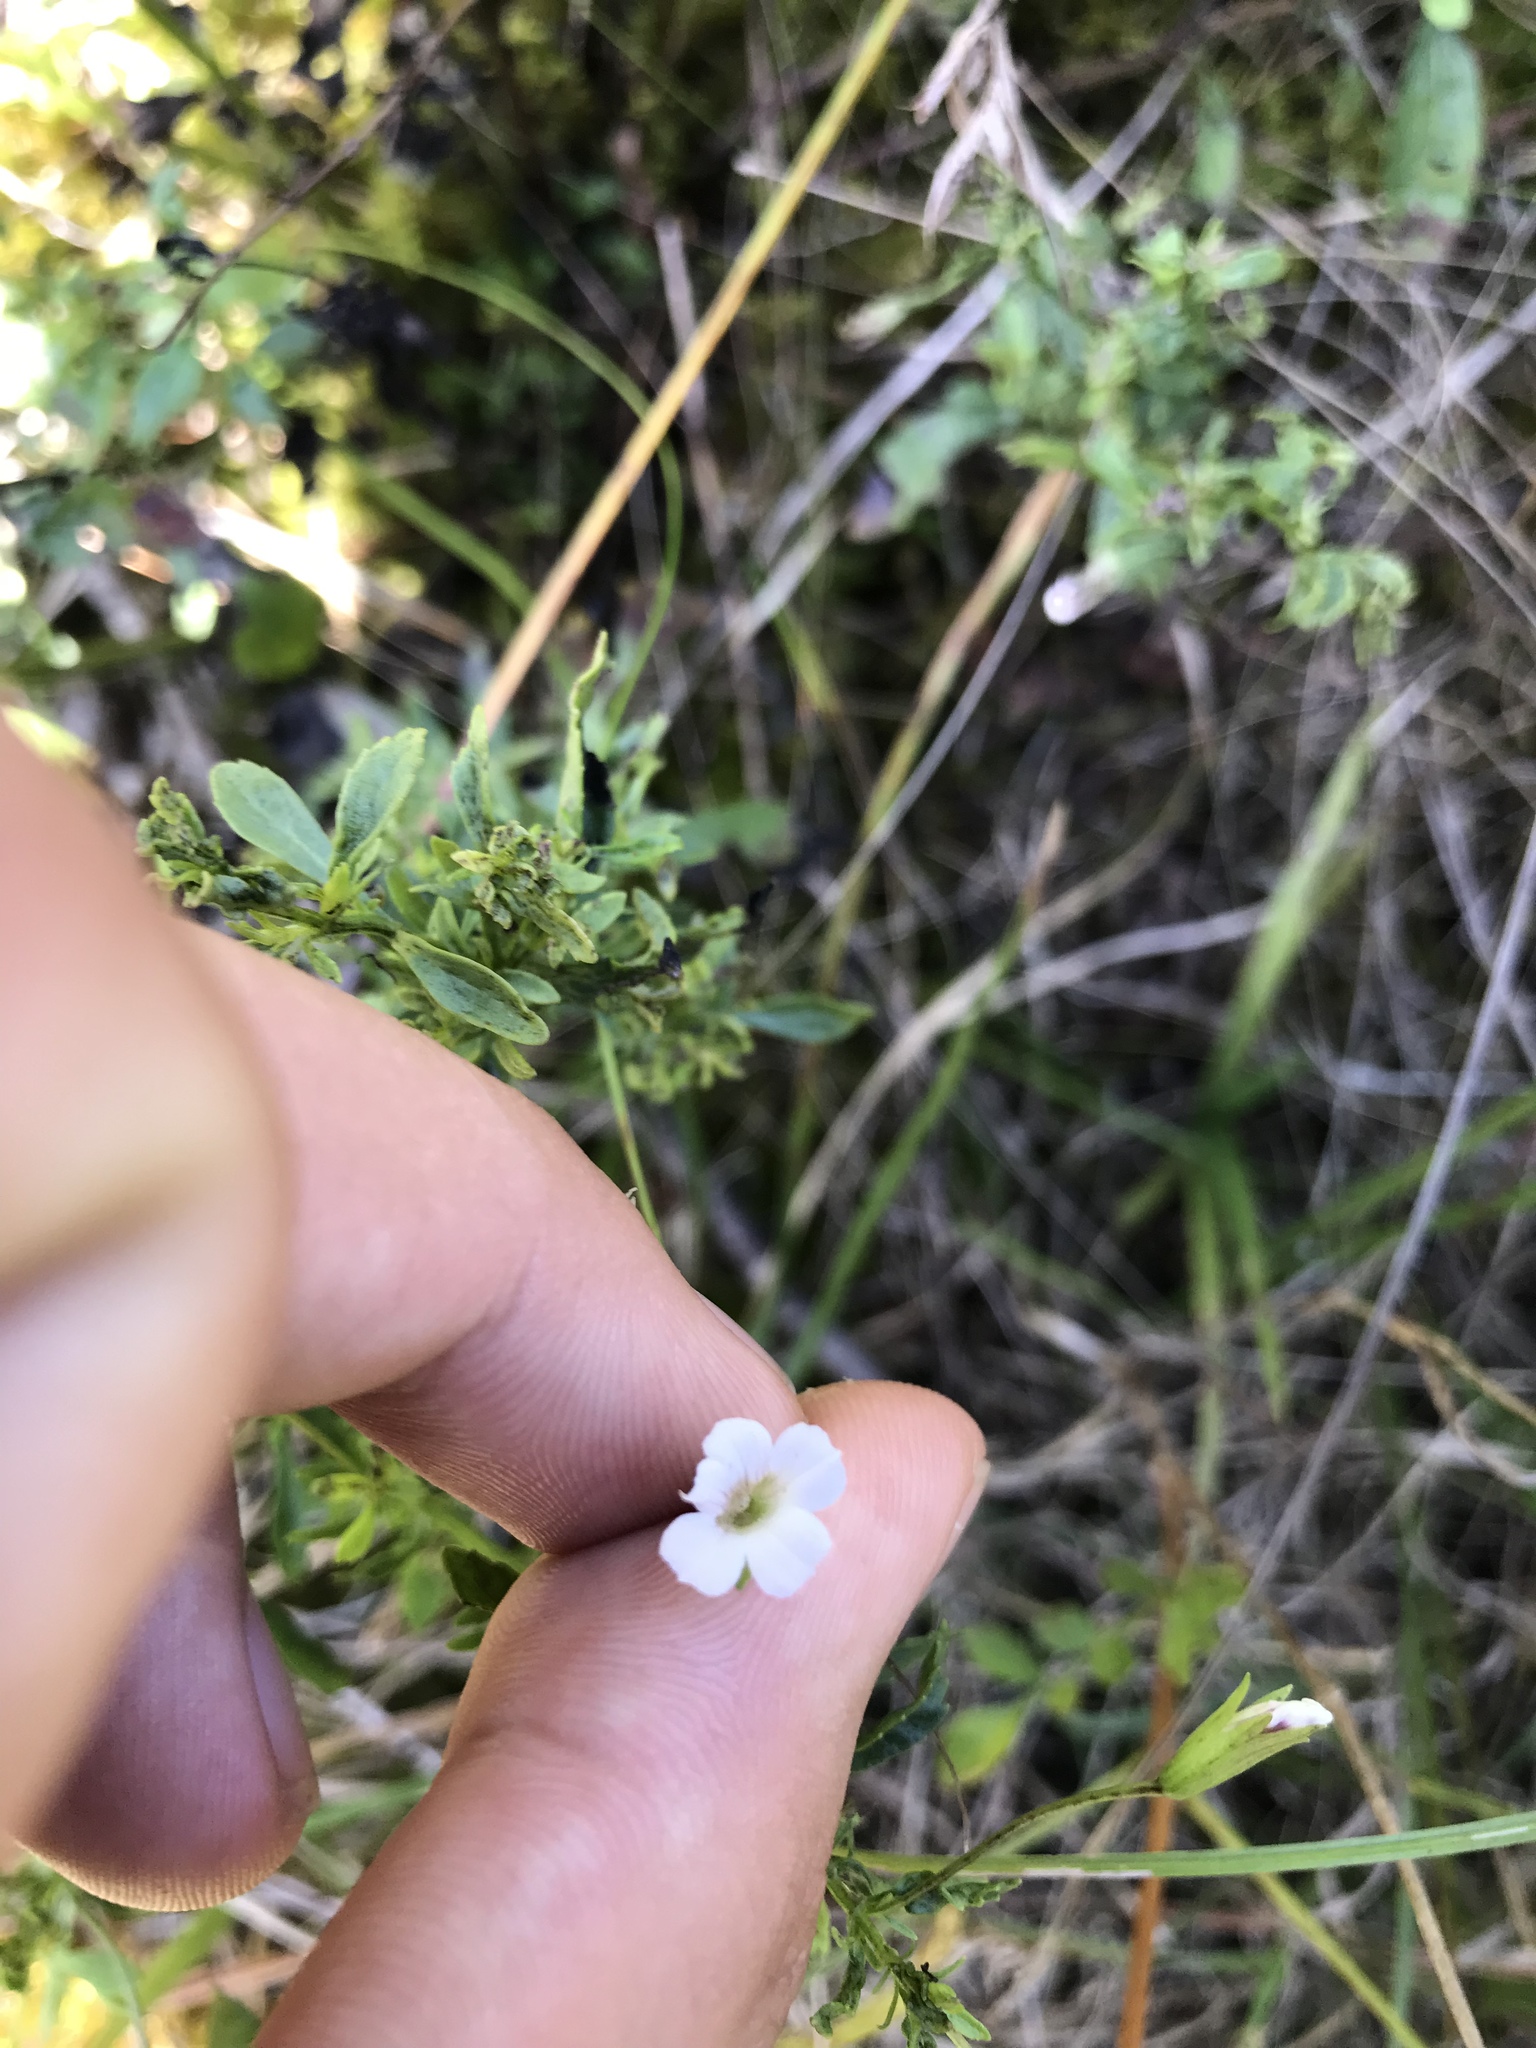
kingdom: Plantae
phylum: Tracheophyta
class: Magnoliopsida
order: Lamiales
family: Plantaginaceae
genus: Mecardonia
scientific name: Mecardonia acuminata
